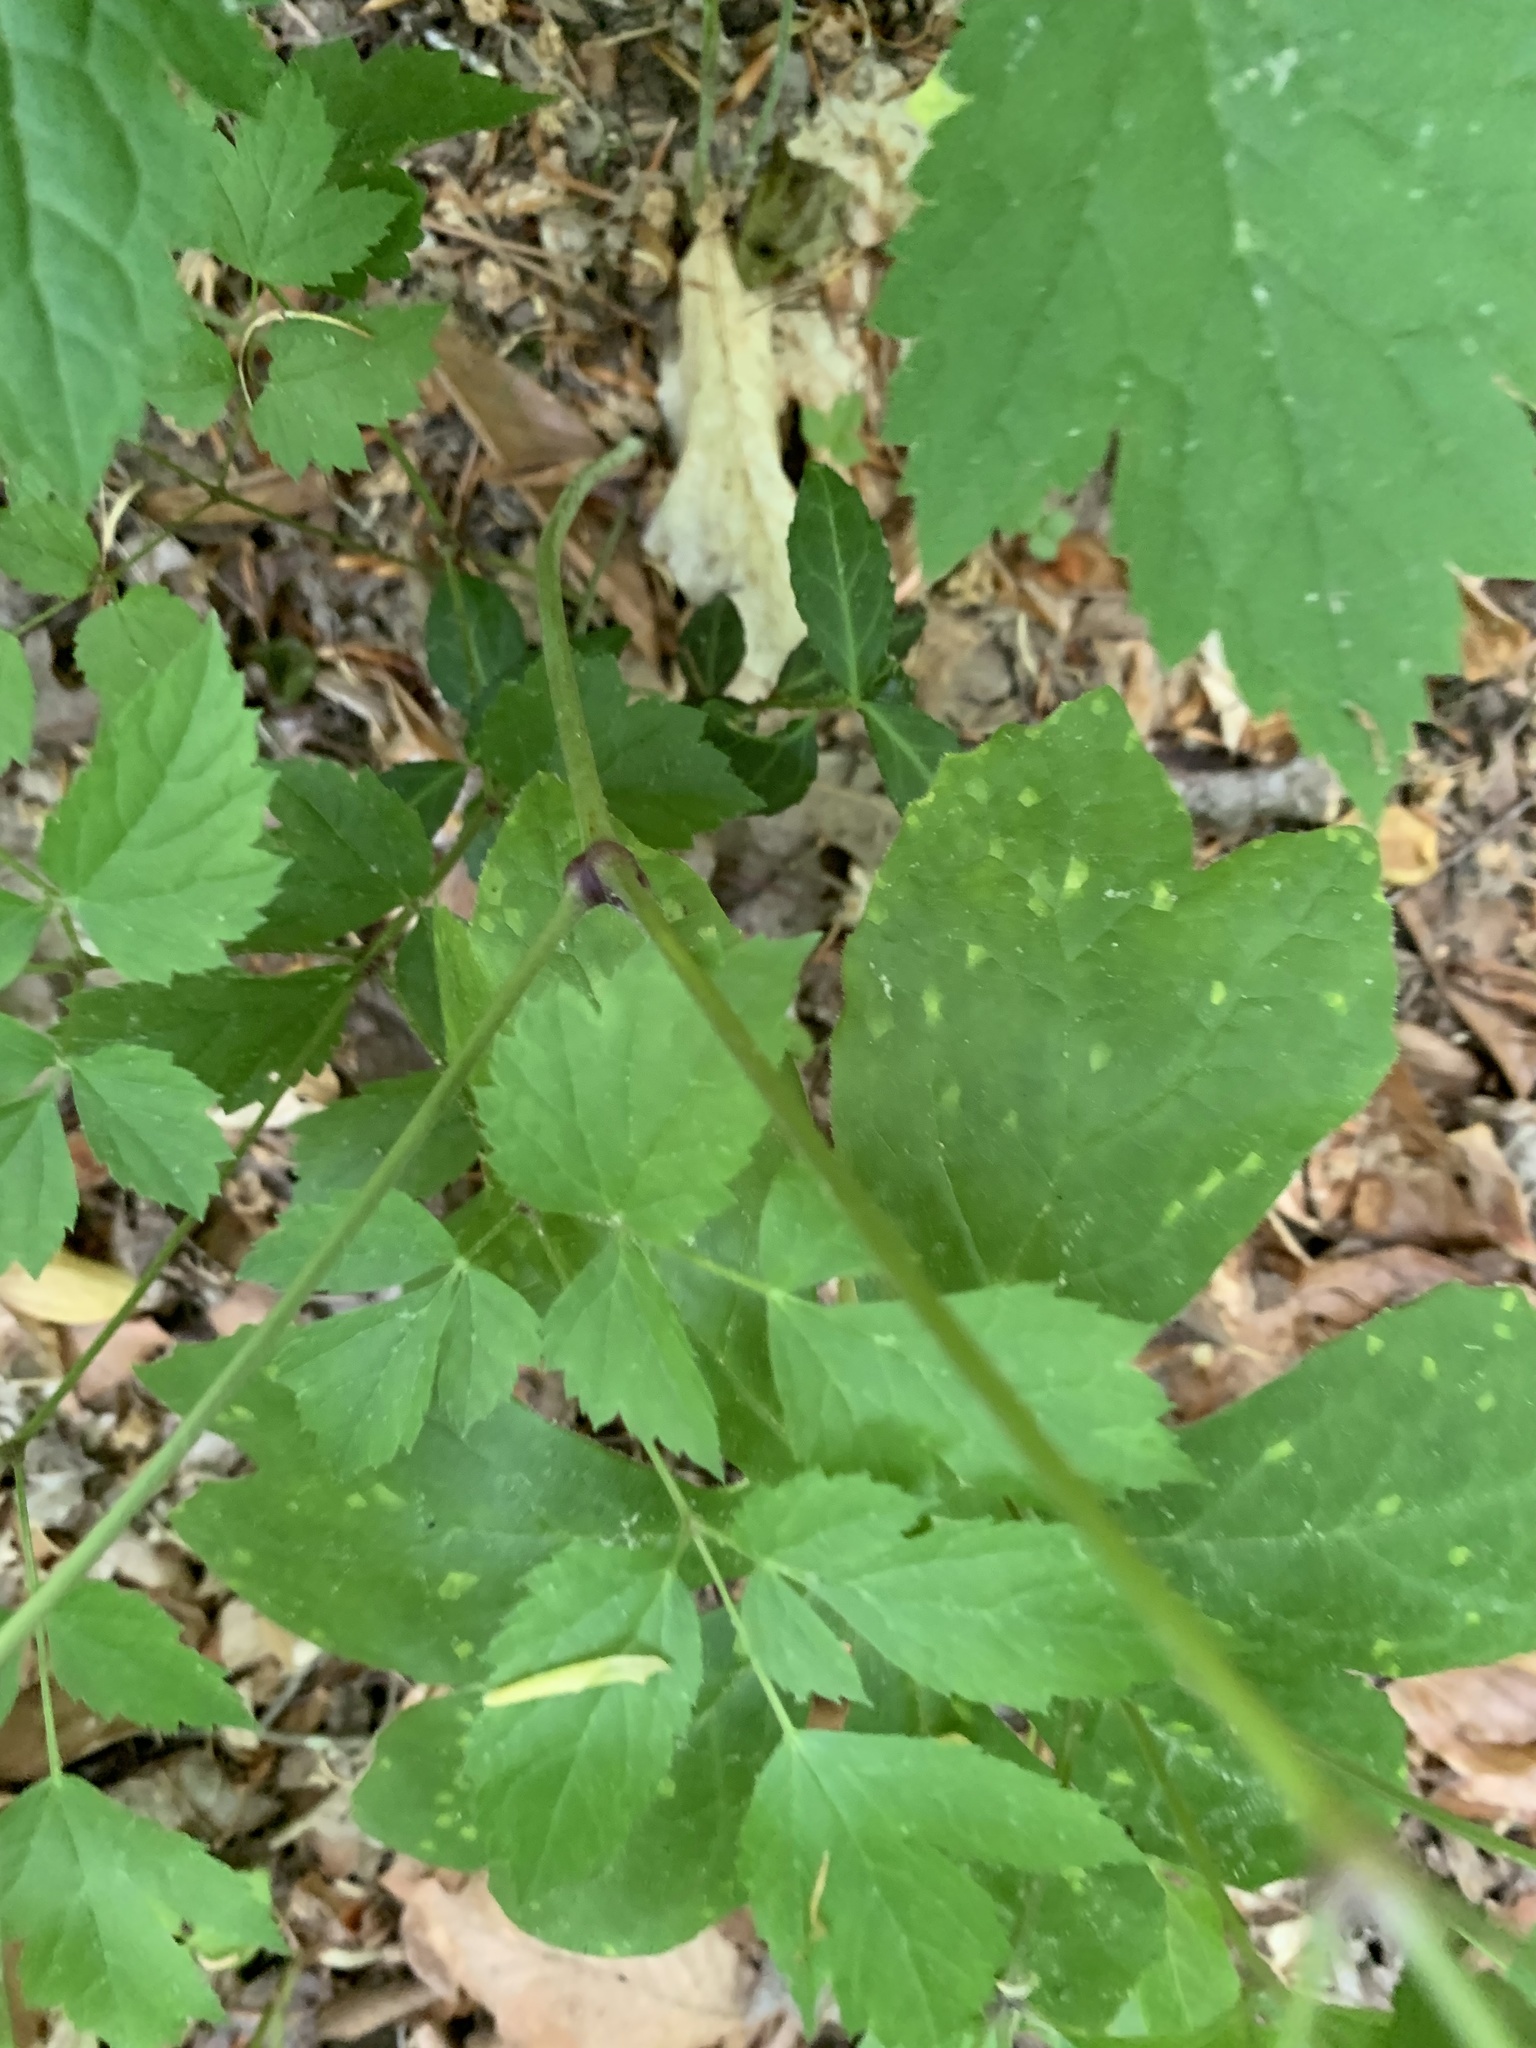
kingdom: Plantae
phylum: Tracheophyta
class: Magnoliopsida
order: Ranunculales
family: Ranunculaceae
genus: Actaea
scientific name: Actaea racemosa
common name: Black cohosh
